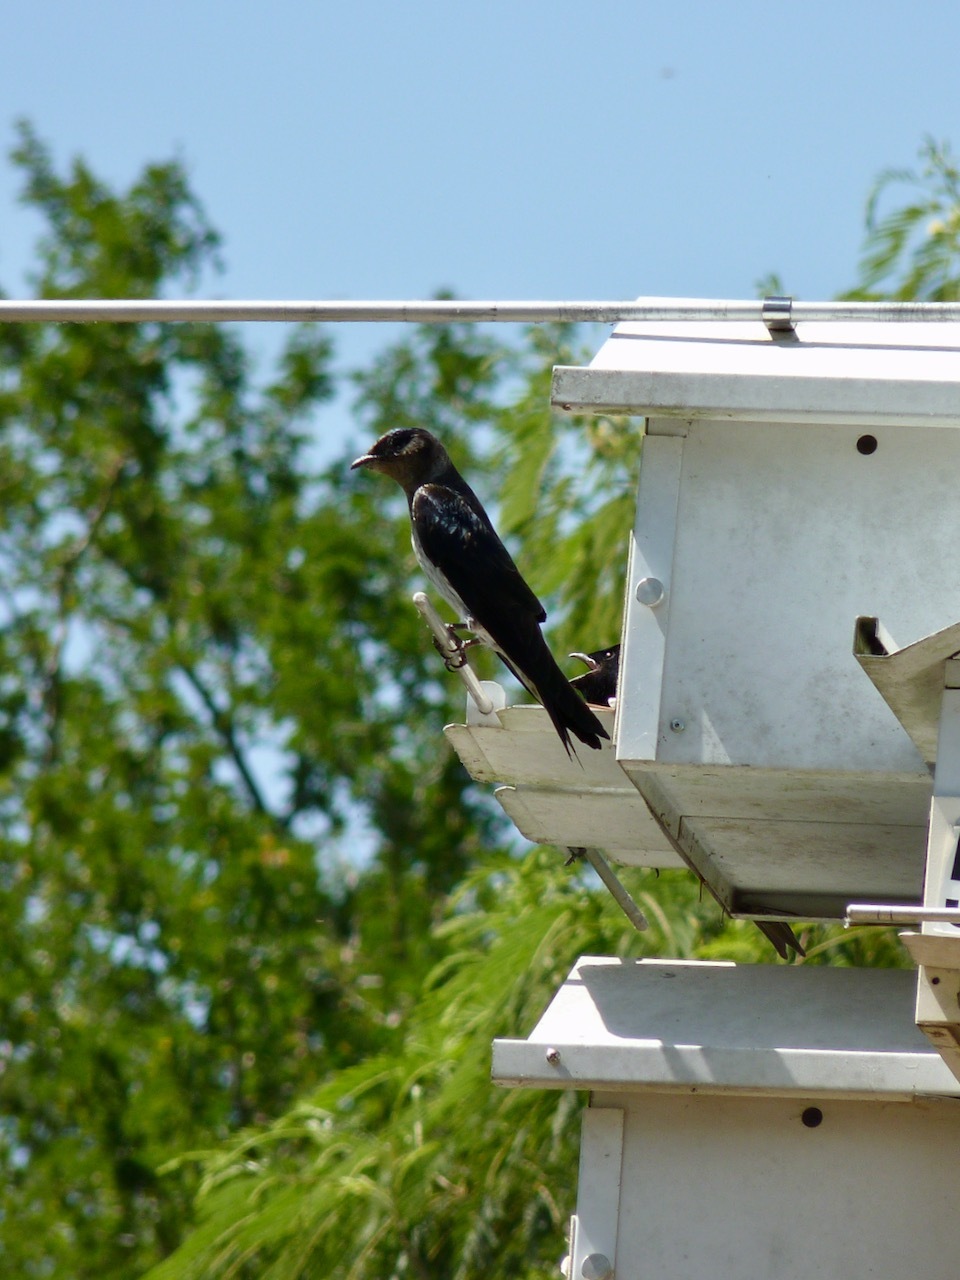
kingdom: Animalia
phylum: Chordata
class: Aves
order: Passeriformes
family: Hirundinidae
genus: Progne
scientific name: Progne subis
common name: Purple martin
